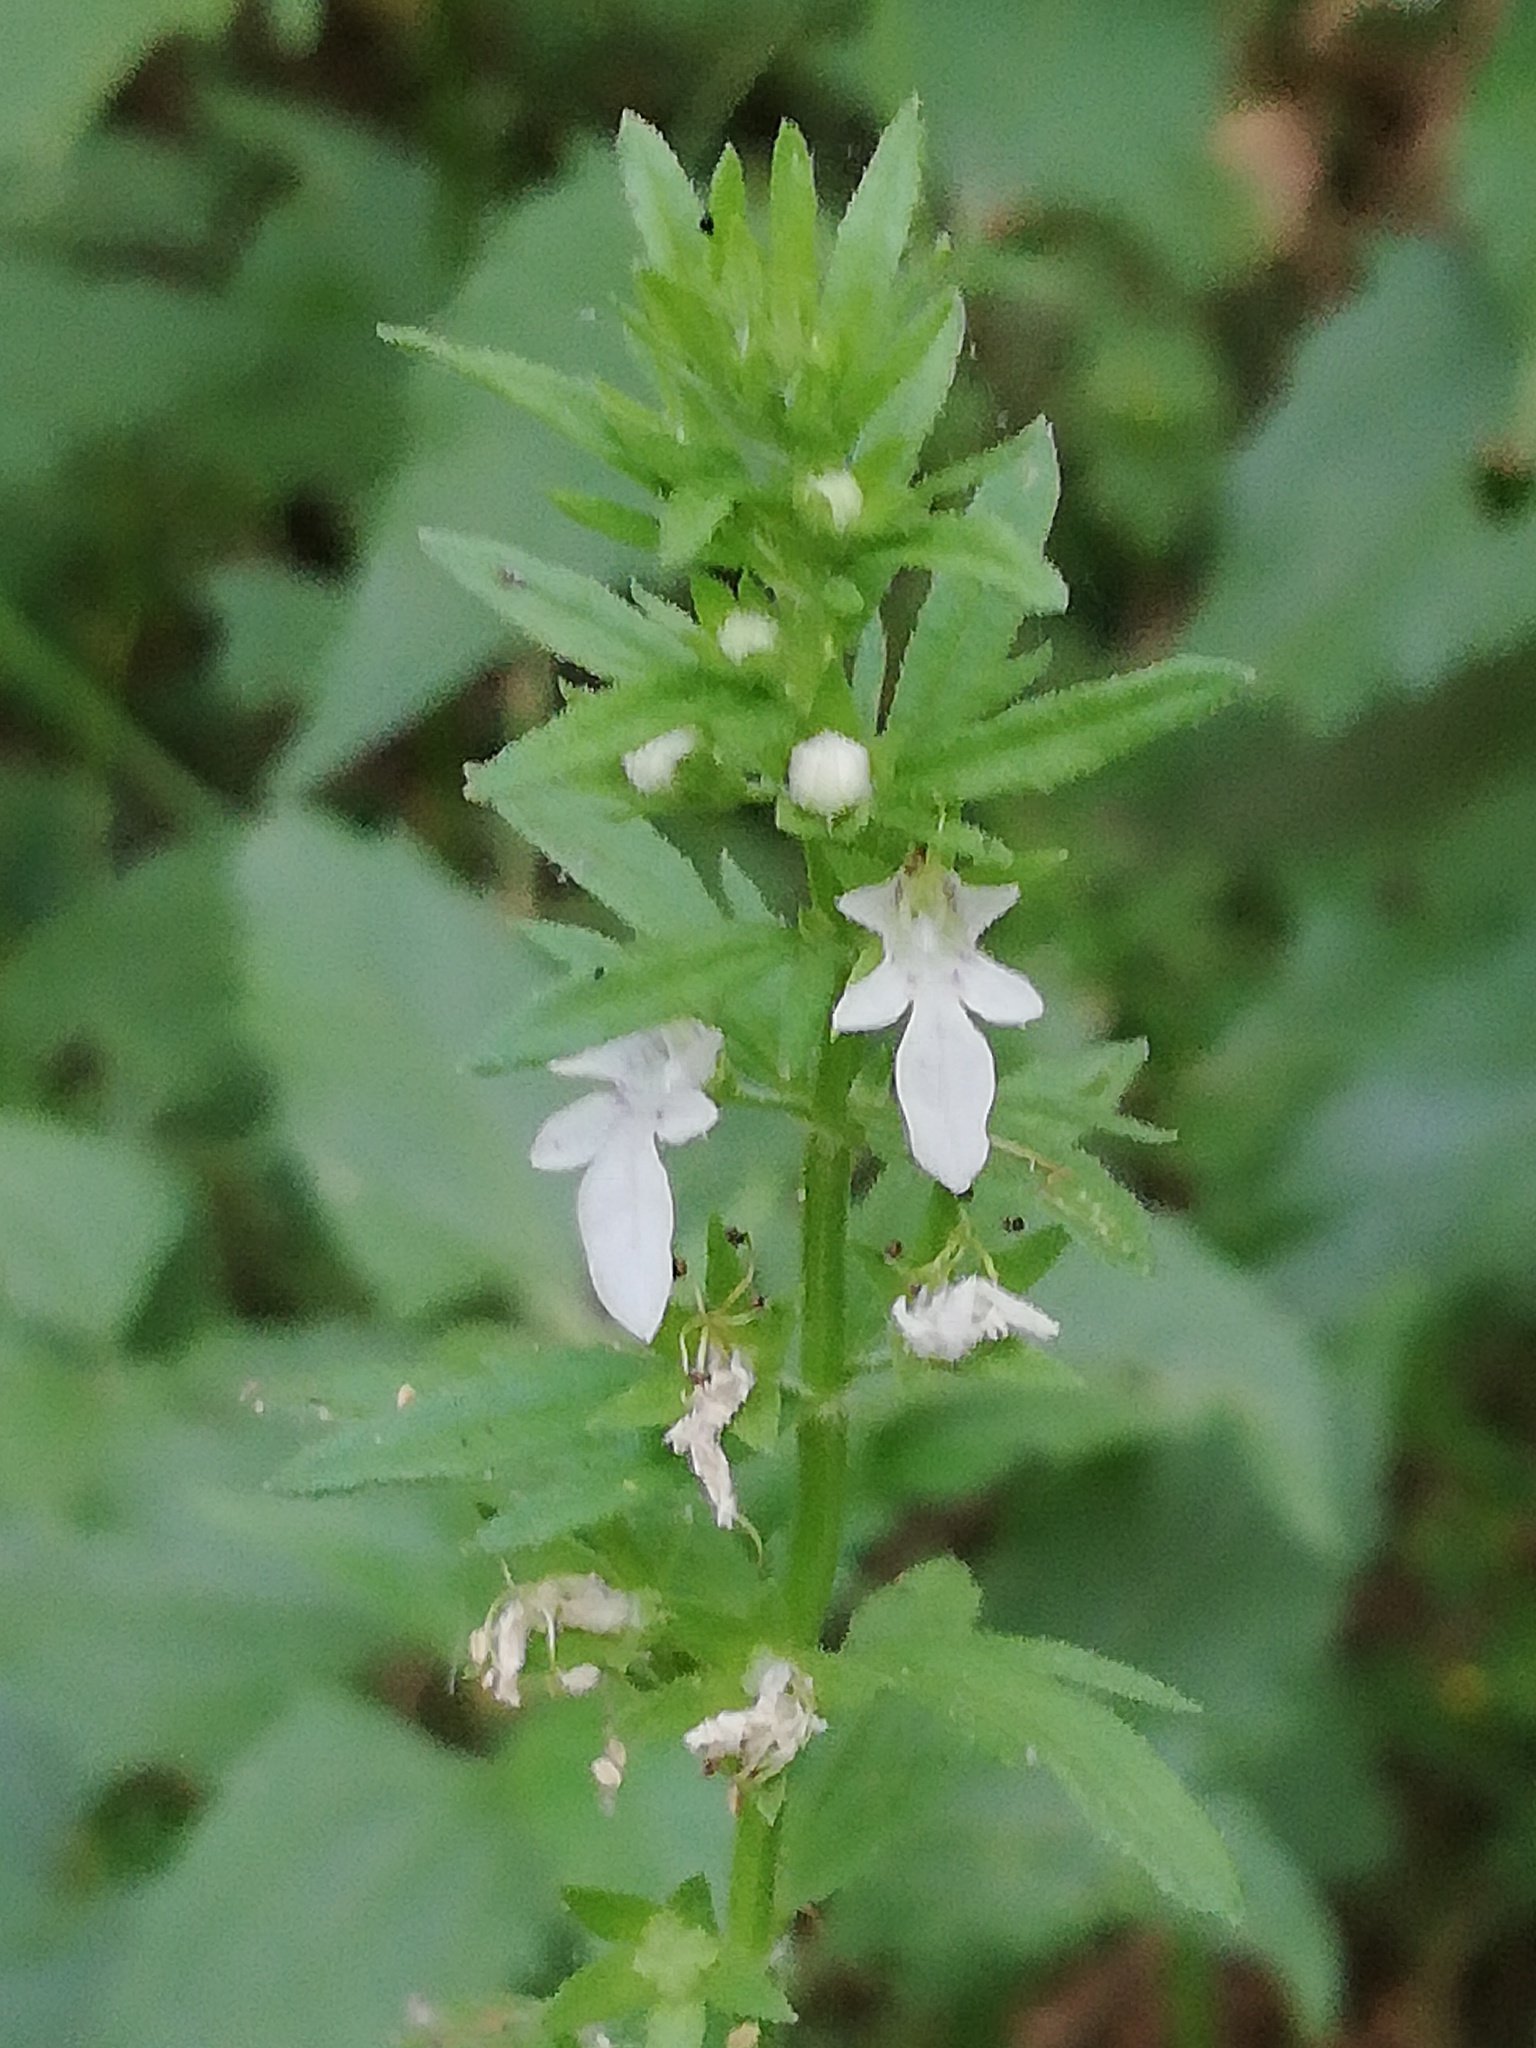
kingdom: Plantae
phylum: Tracheophyta
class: Magnoliopsida
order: Lamiales
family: Lamiaceae
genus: Teucrium
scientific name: Teucrium cubense
